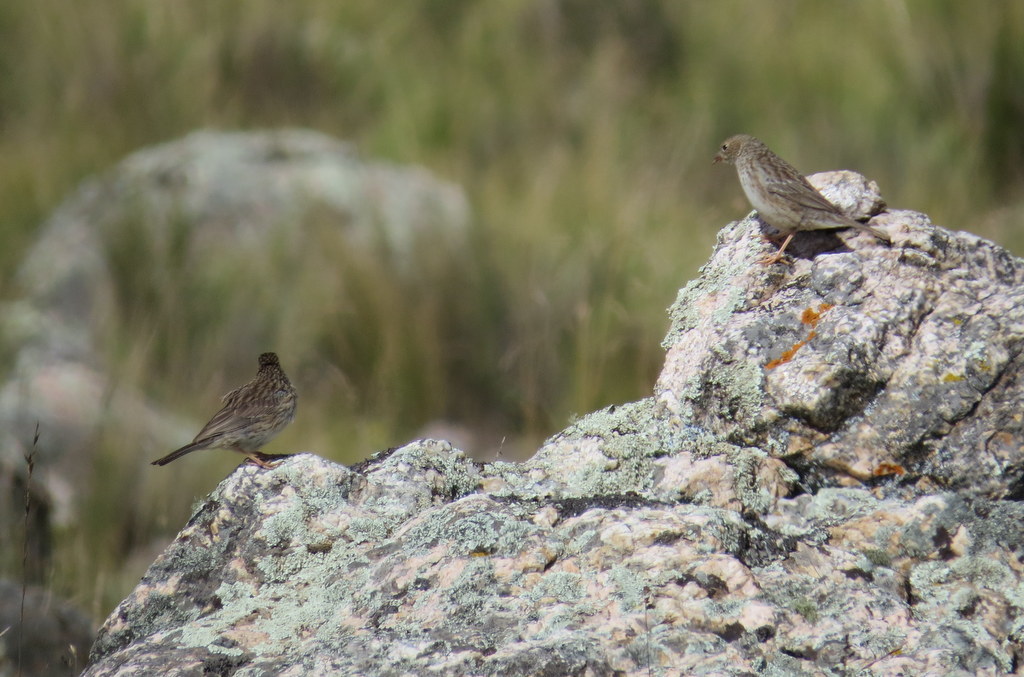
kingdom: Animalia
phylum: Chordata
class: Aves
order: Passeriformes
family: Thraupidae
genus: Porphyrospiza
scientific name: Porphyrospiza alaudina
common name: Band-tailed sierra finch
